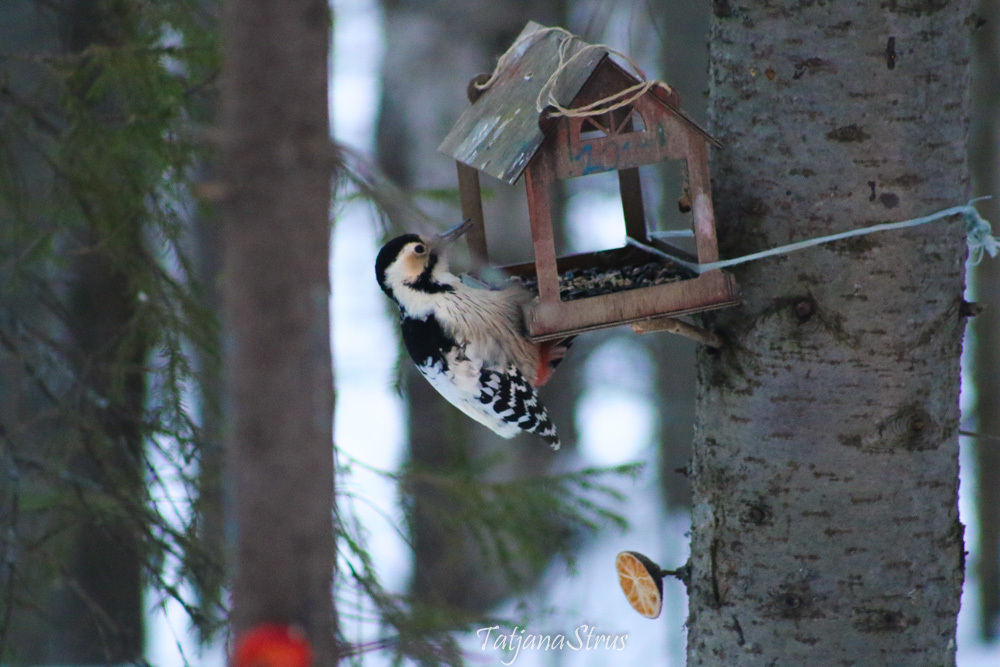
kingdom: Animalia
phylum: Chordata
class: Aves
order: Piciformes
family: Picidae
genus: Dendrocopos
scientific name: Dendrocopos leucotos
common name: White-backed woodpecker
